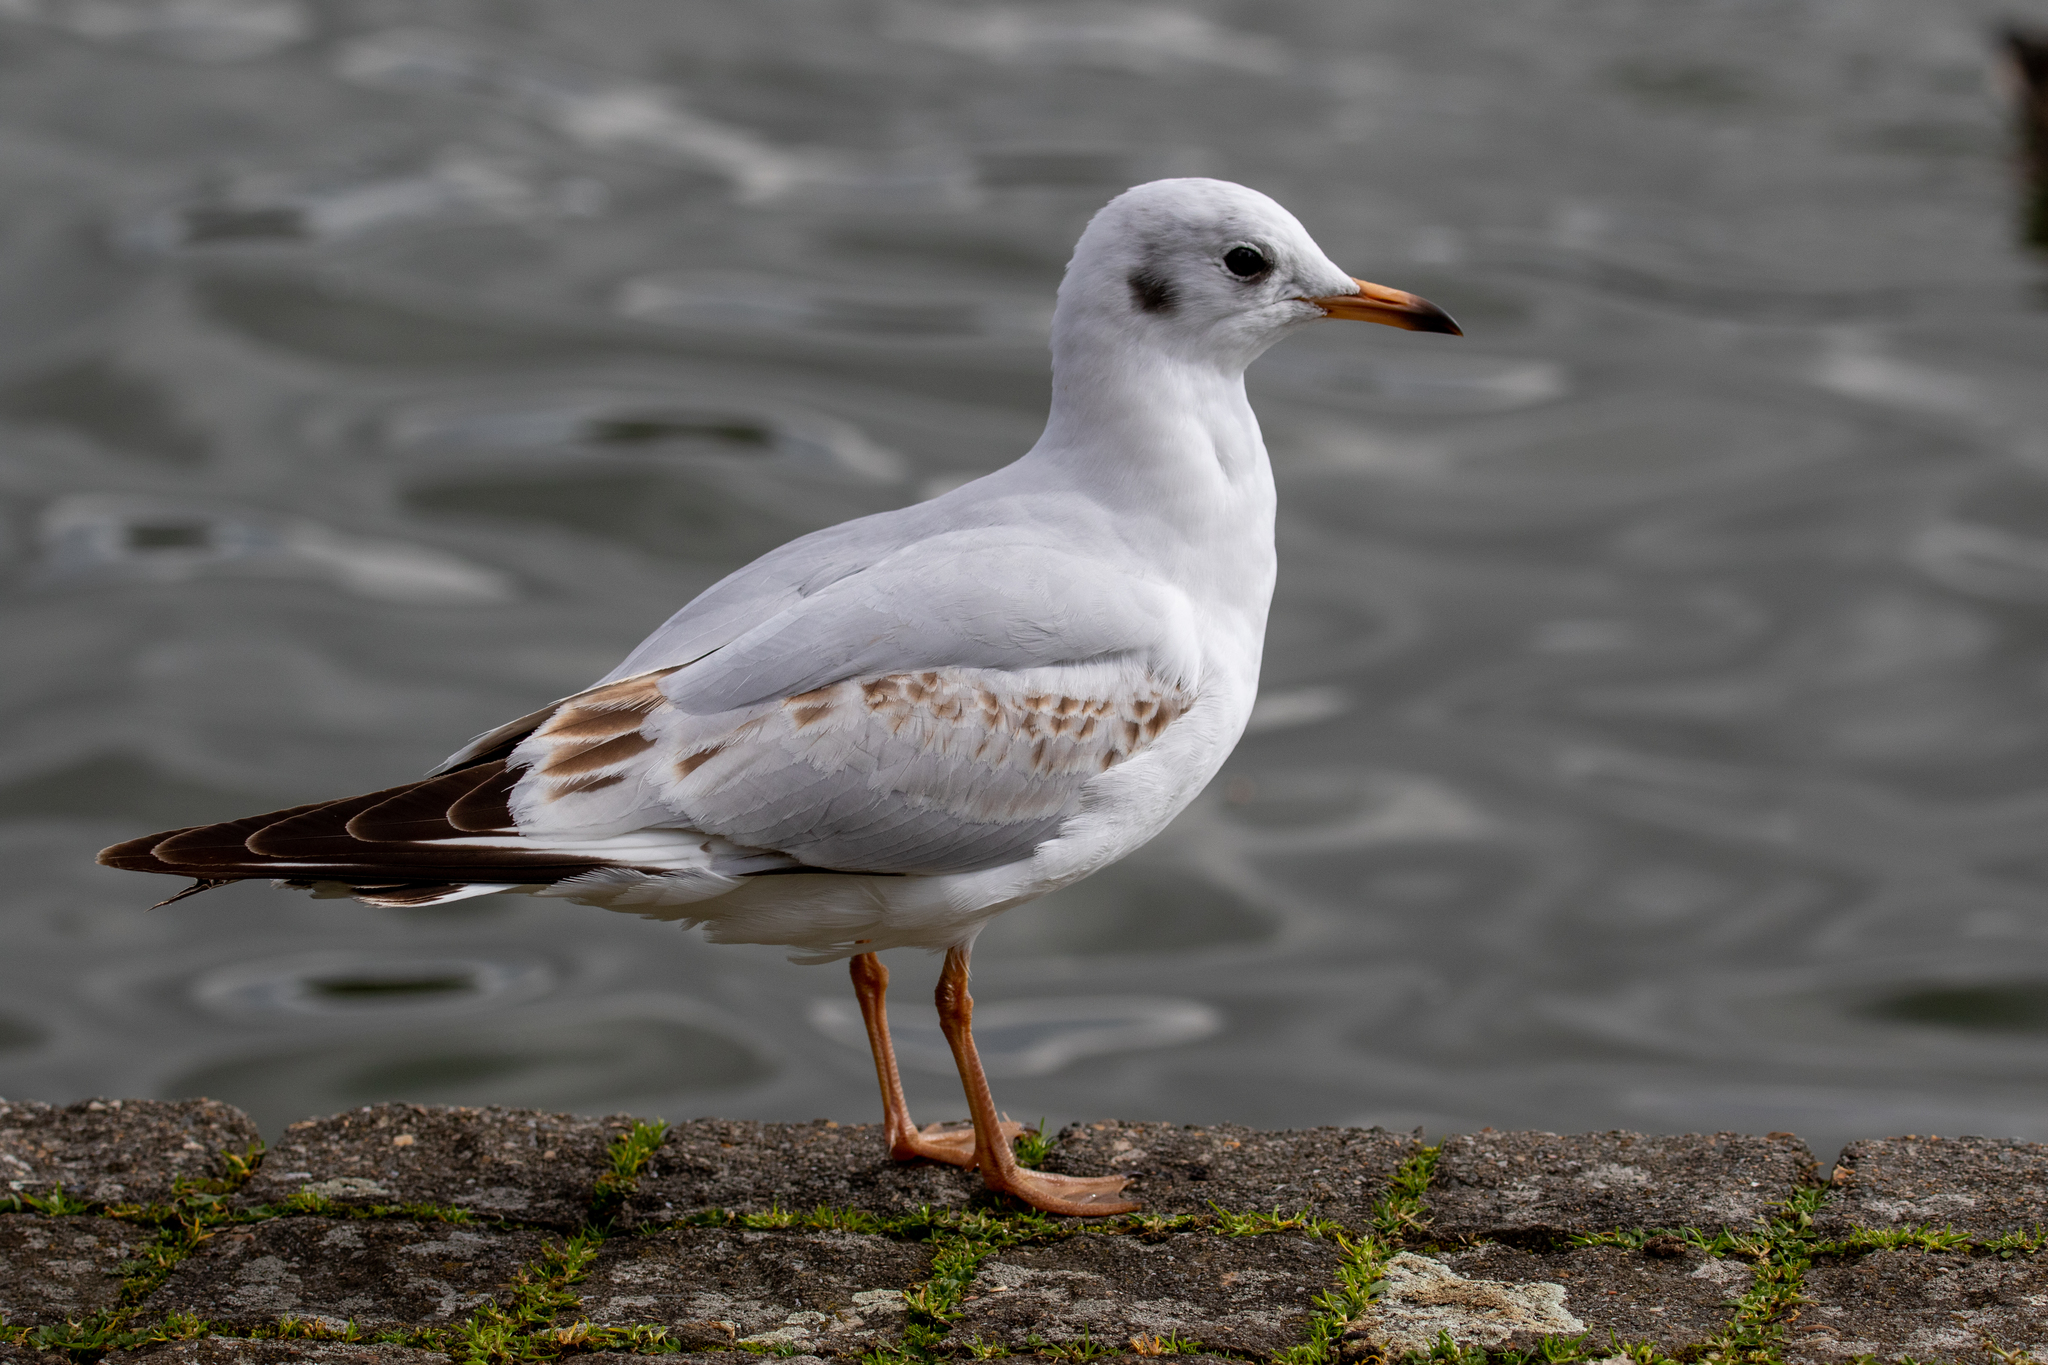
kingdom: Animalia
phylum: Chordata
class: Aves
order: Charadriiformes
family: Laridae
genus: Chroicocephalus
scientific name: Chroicocephalus ridibundus
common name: Black-headed gull
